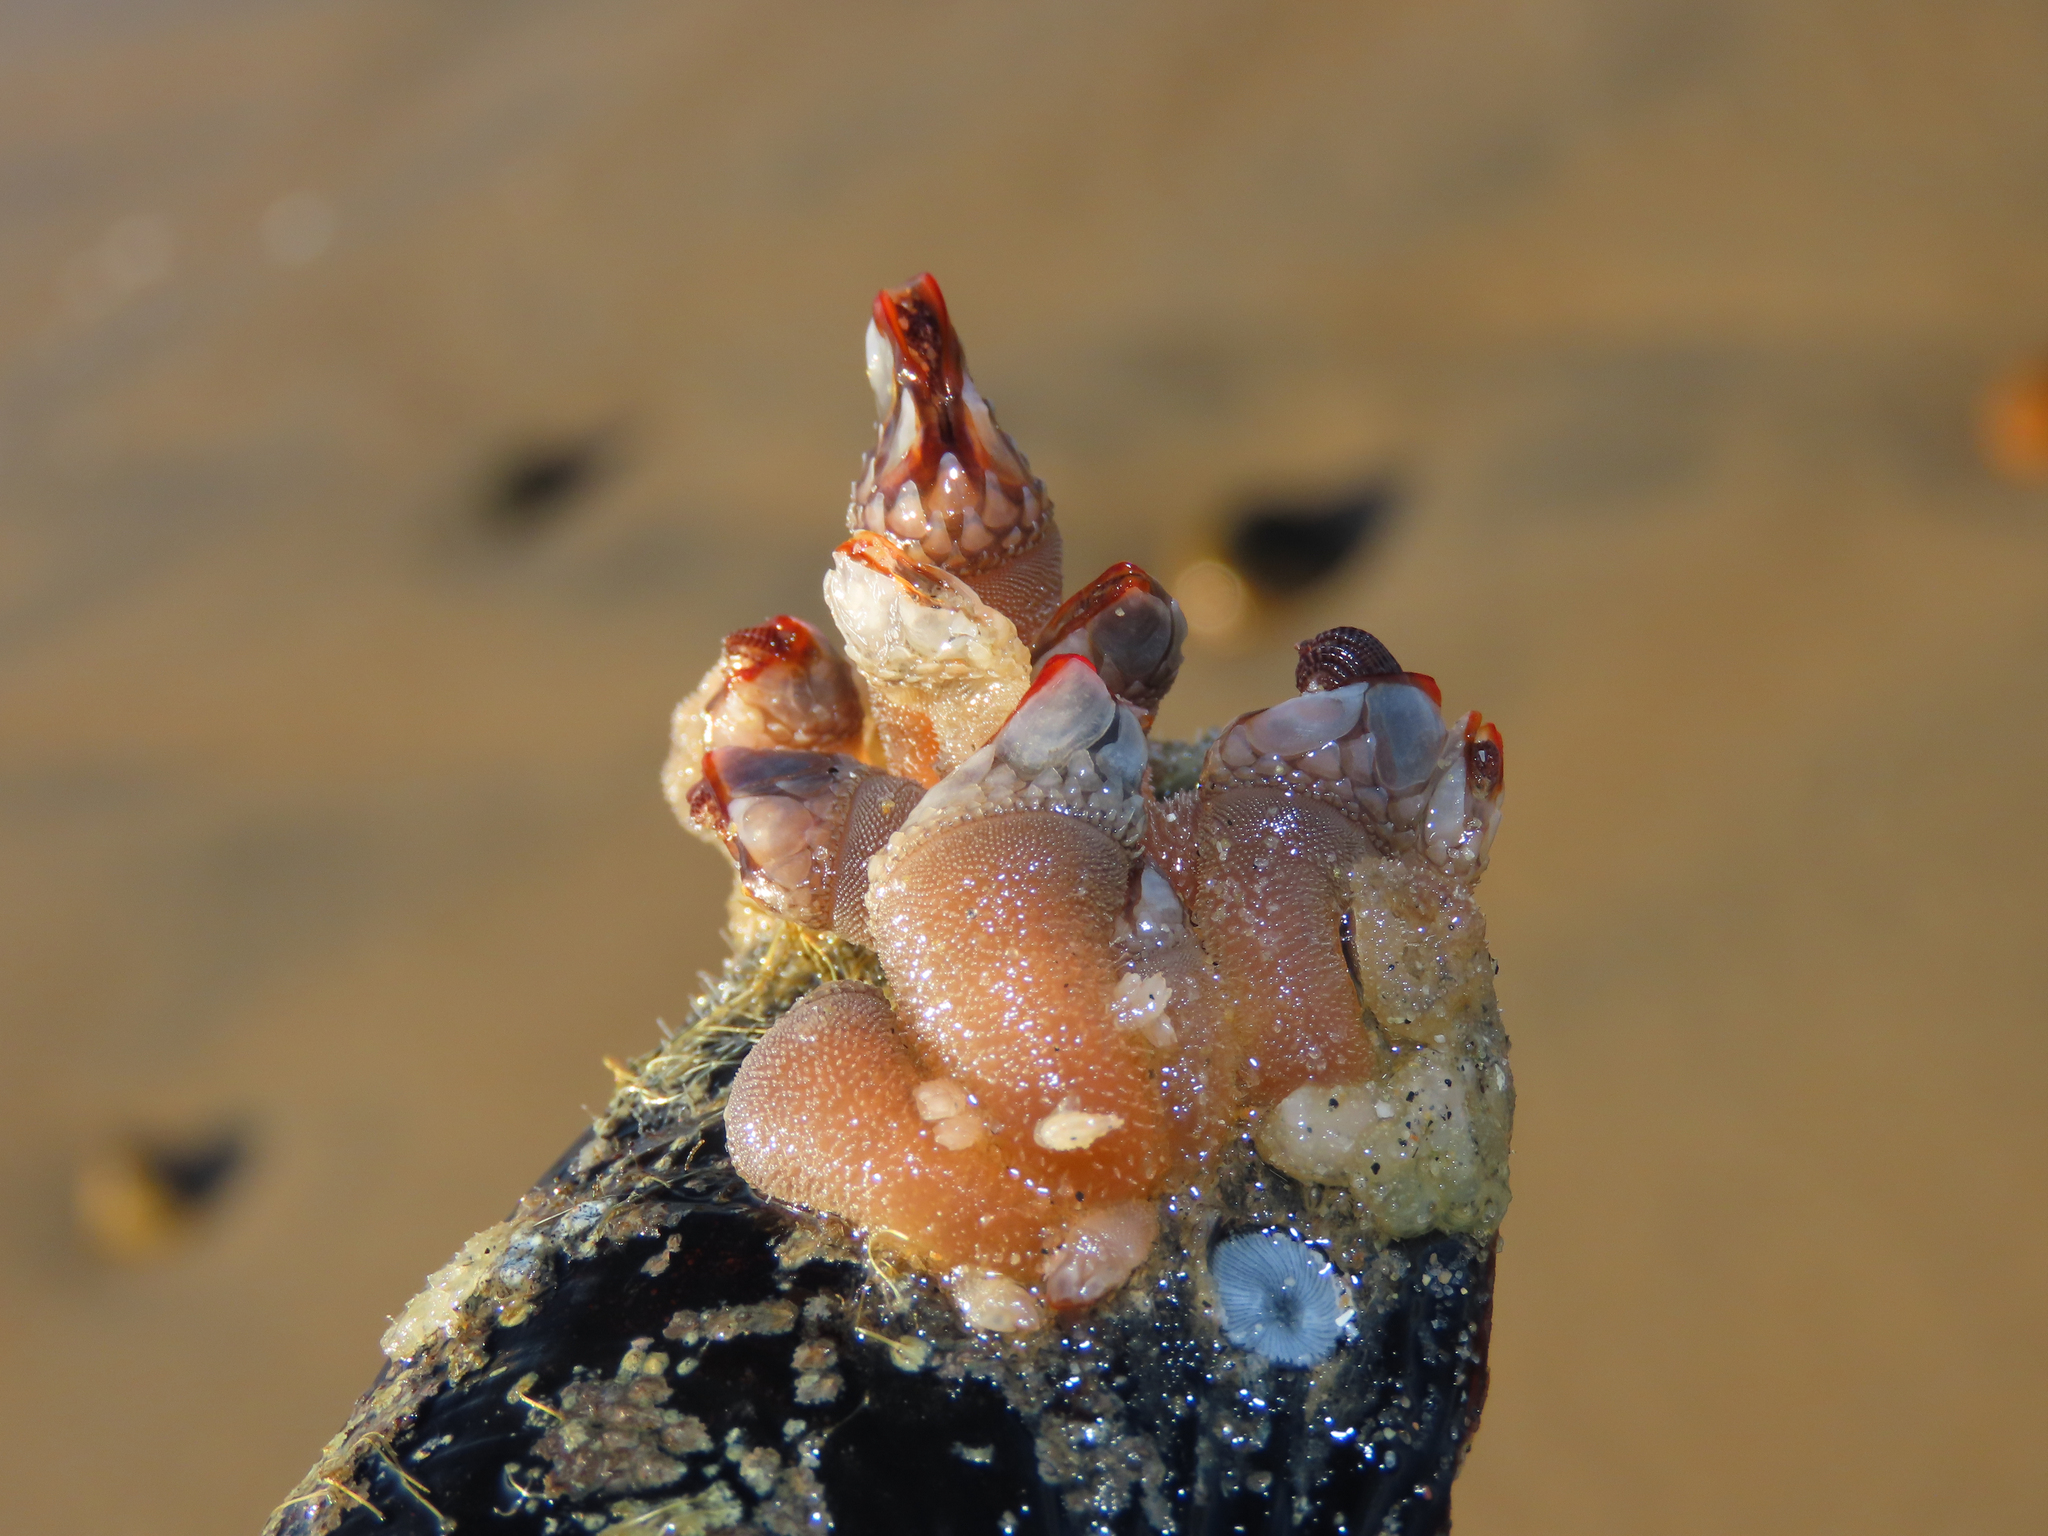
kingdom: Animalia
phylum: Arthropoda
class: Maxillopoda
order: Pedunculata
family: Pollicipedidae
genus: Pollicipes
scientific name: Pollicipes polymerus
